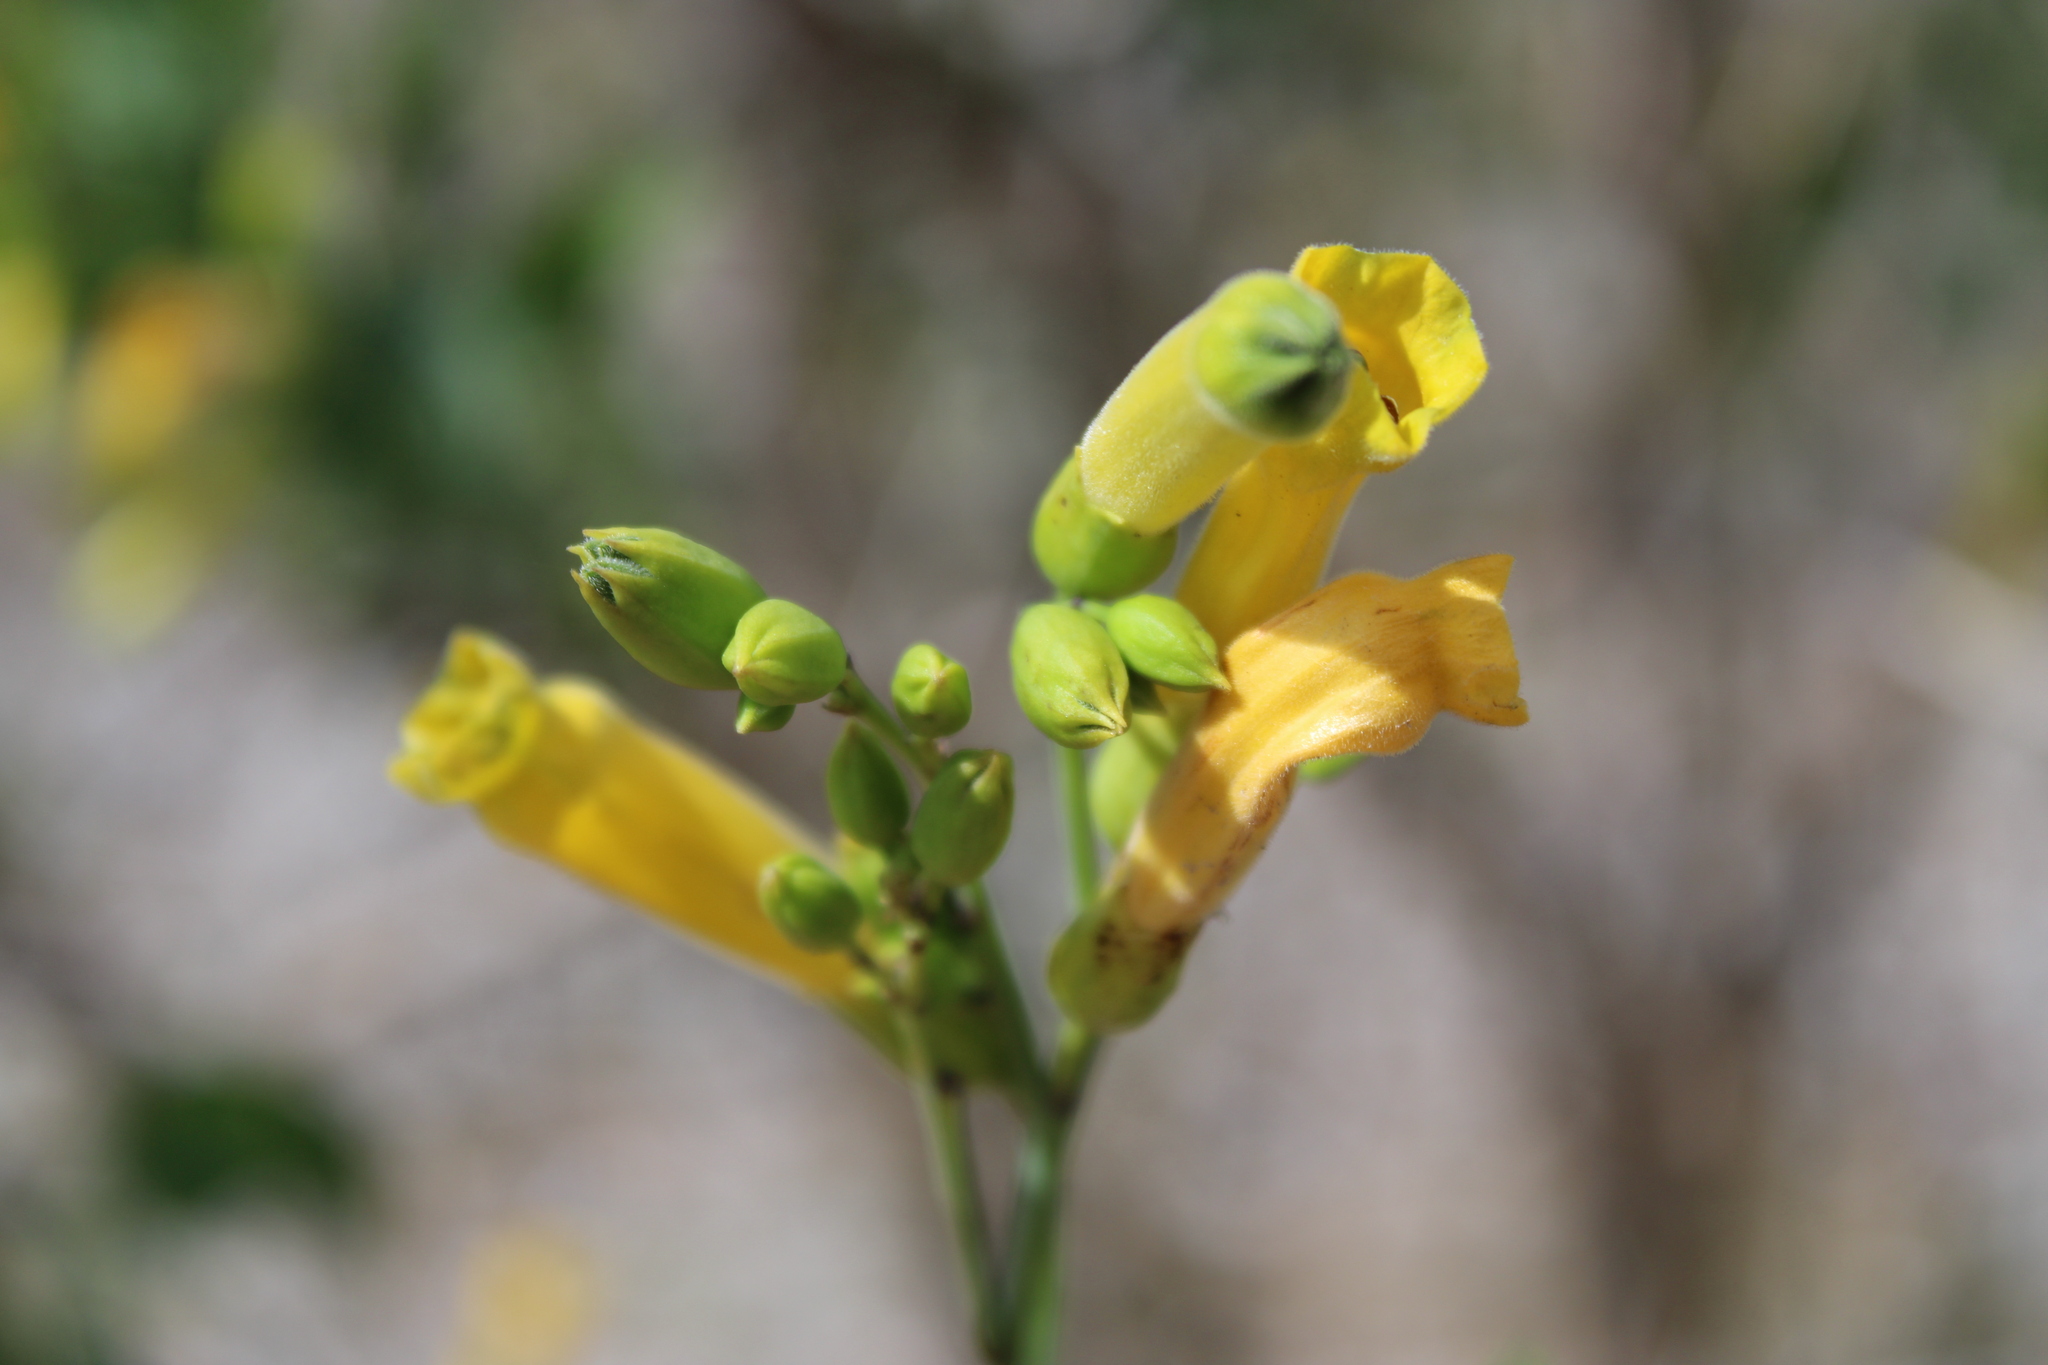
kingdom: Plantae
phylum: Tracheophyta
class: Magnoliopsida
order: Solanales
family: Solanaceae
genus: Nicotiana
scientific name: Nicotiana glauca
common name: Tree tobacco
